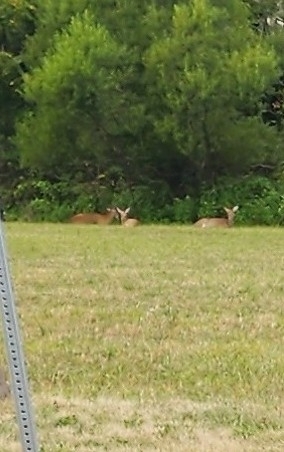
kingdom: Animalia
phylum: Chordata
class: Mammalia
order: Artiodactyla
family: Cervidae
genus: Odocoileus
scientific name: Odocoileus virginianus
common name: White-tailed deer
